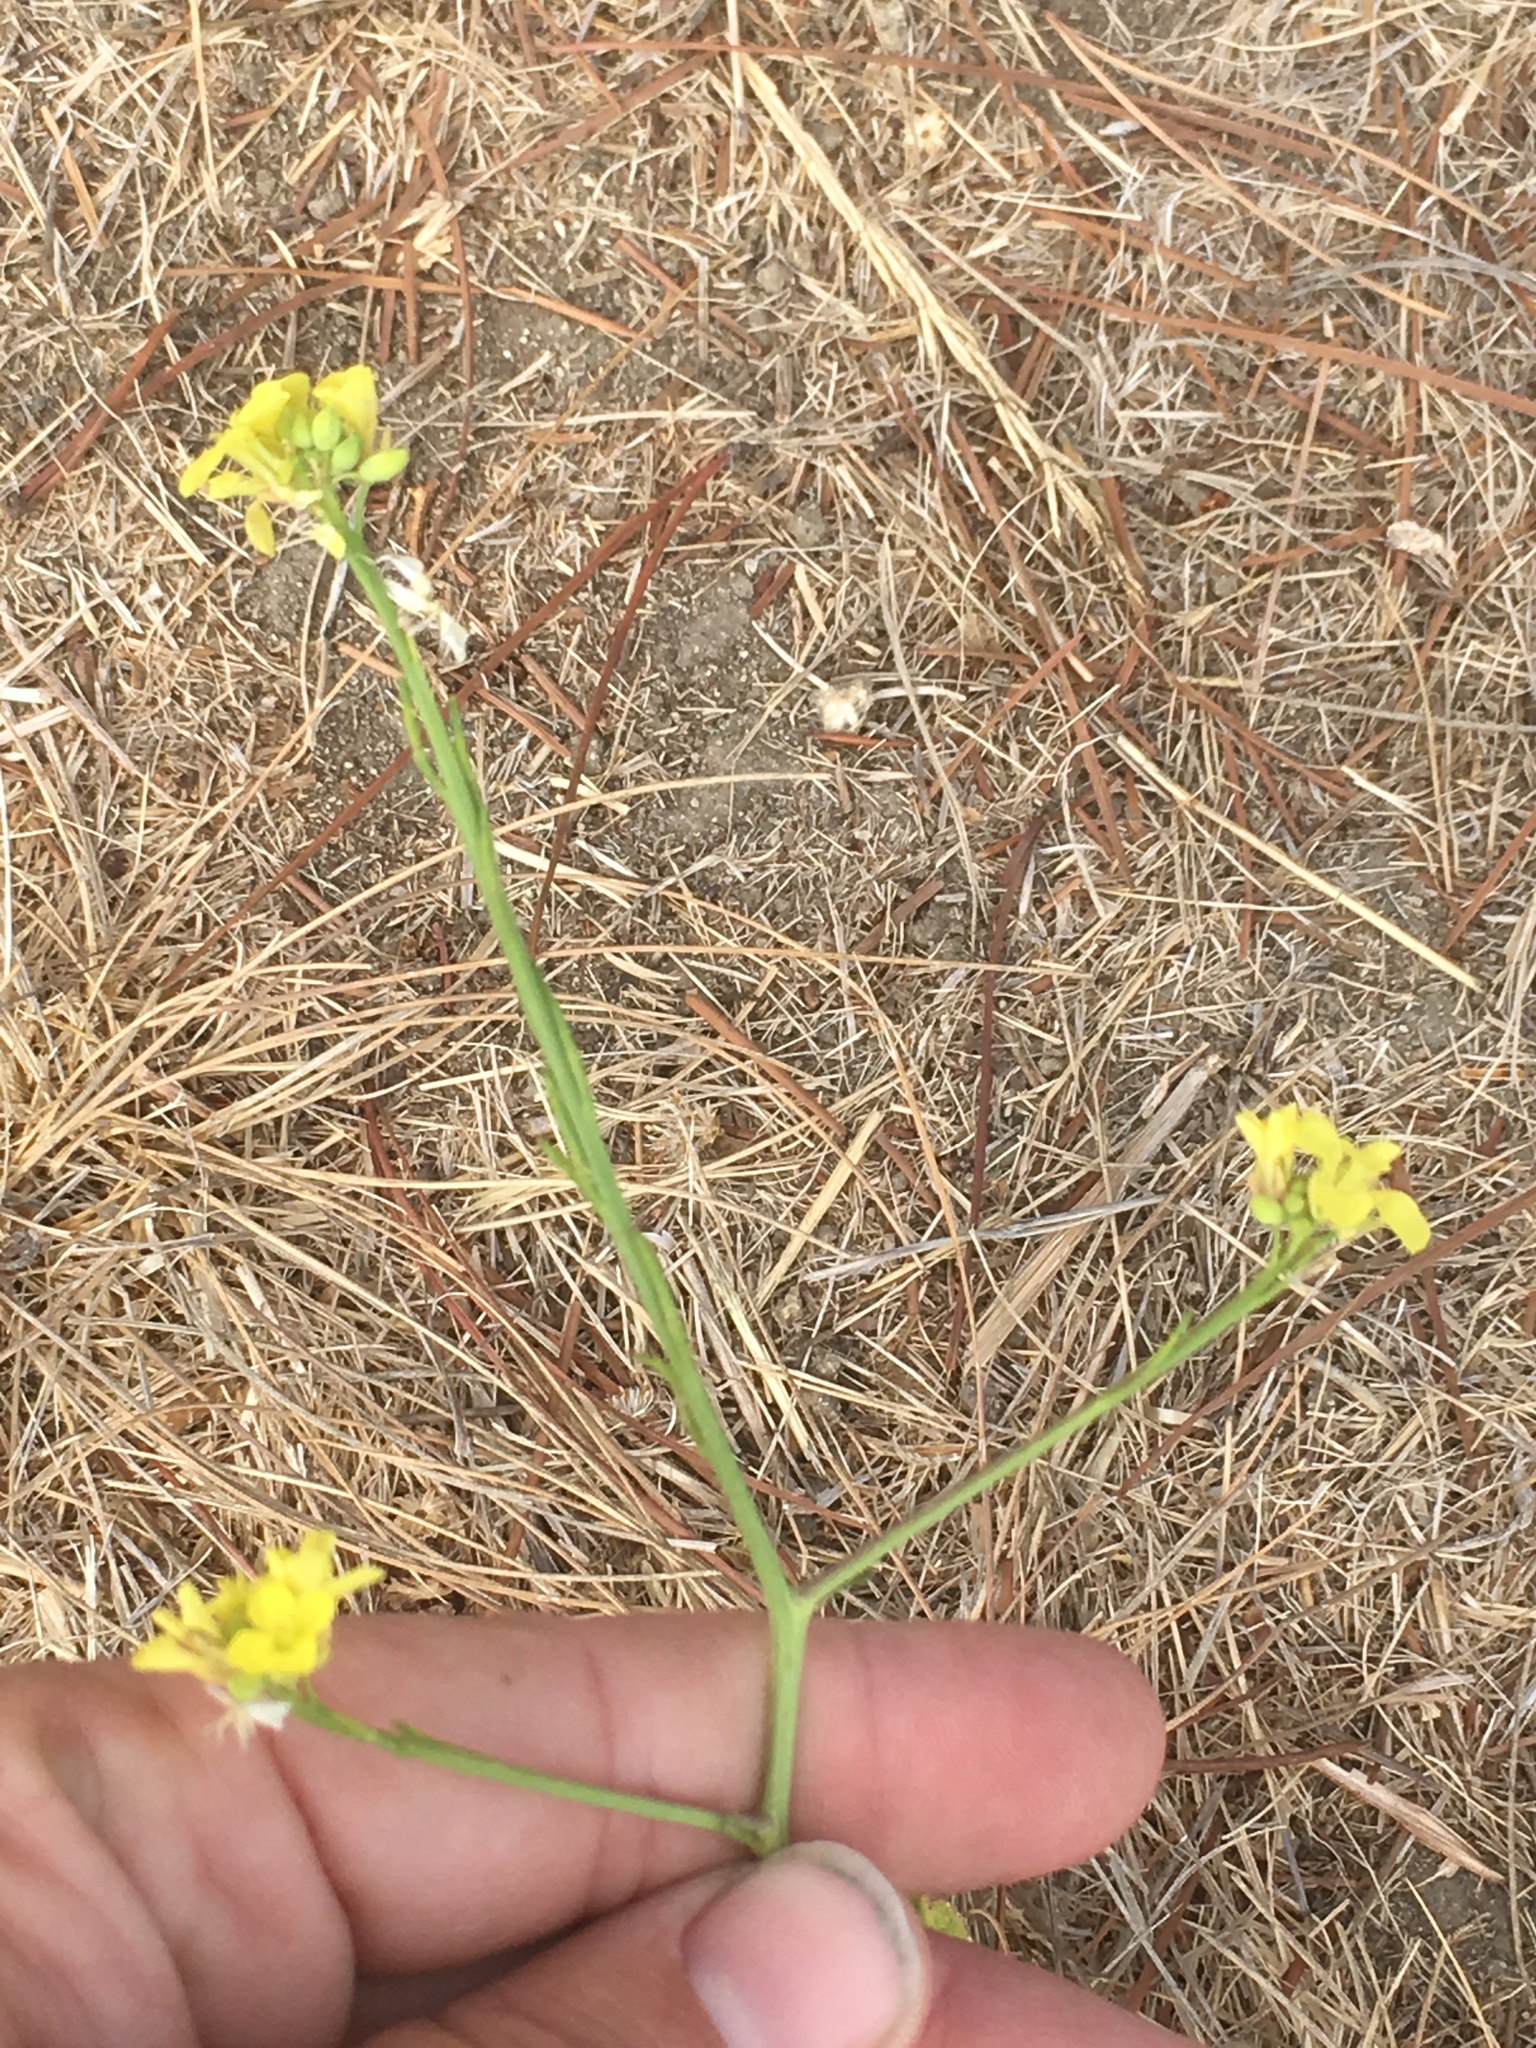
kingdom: Plantae
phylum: Tracheophyta
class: Magnoliopsida
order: Brassicales
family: Brassicaceae
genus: Hirschfeldia
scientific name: Hirschfeldia incana
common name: Hoary mustard
